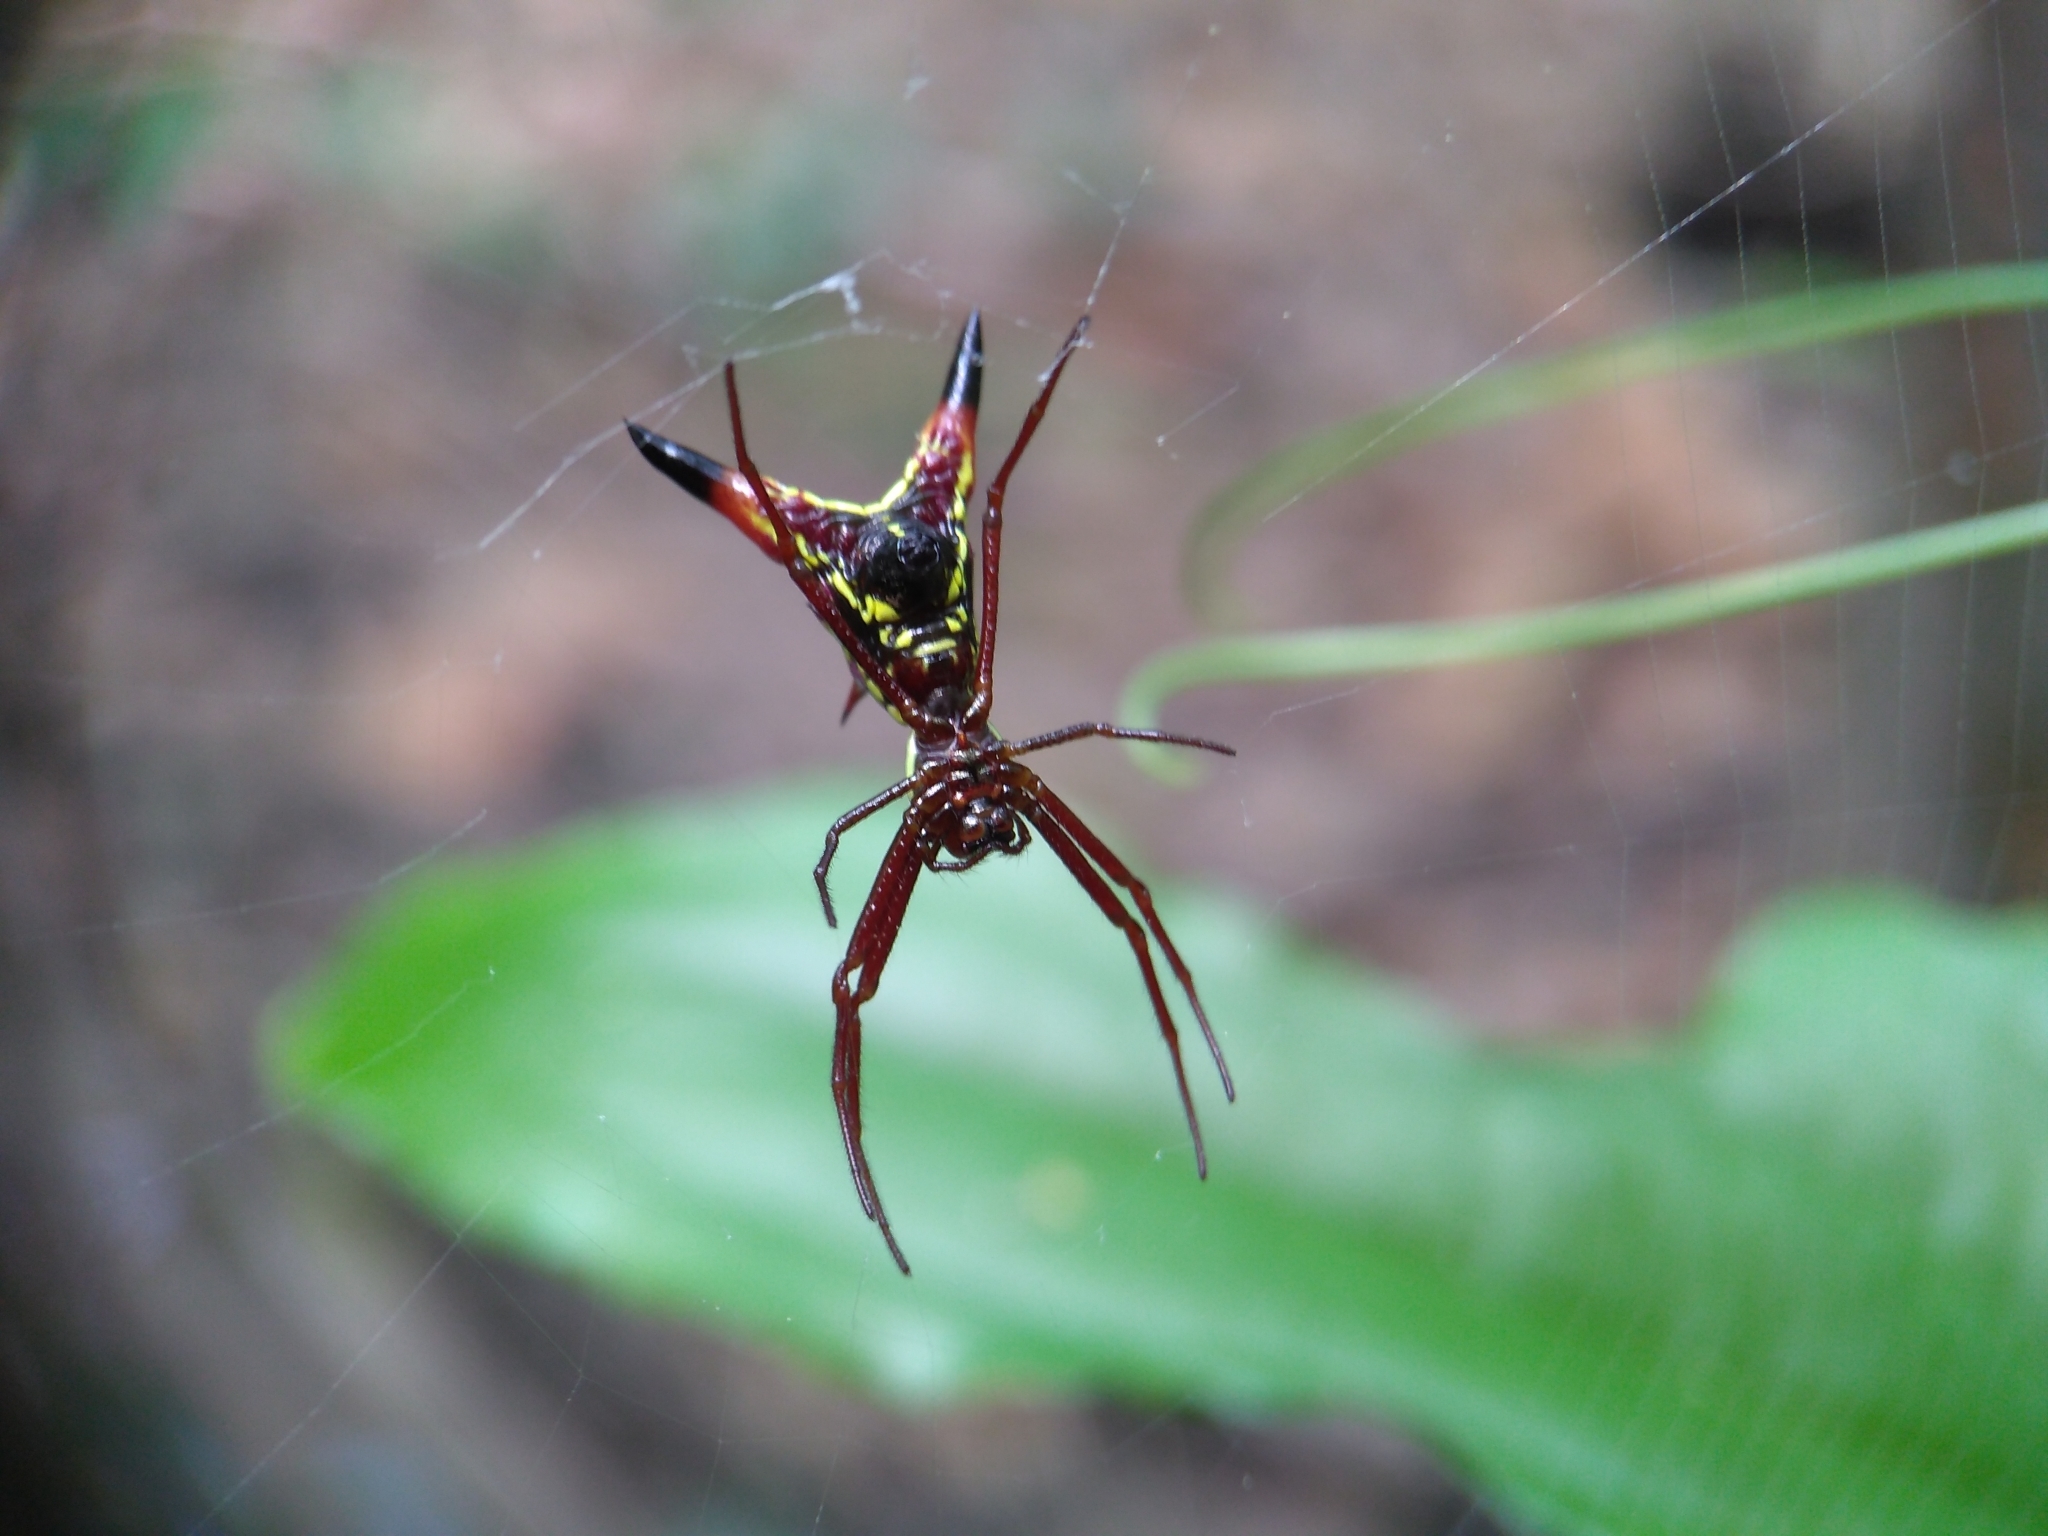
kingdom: Animalia
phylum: Arthropoda
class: Arachnida
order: Araneae
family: Araneidae
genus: Micrathena
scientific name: Micrathena sagittata
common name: Orb weavers
